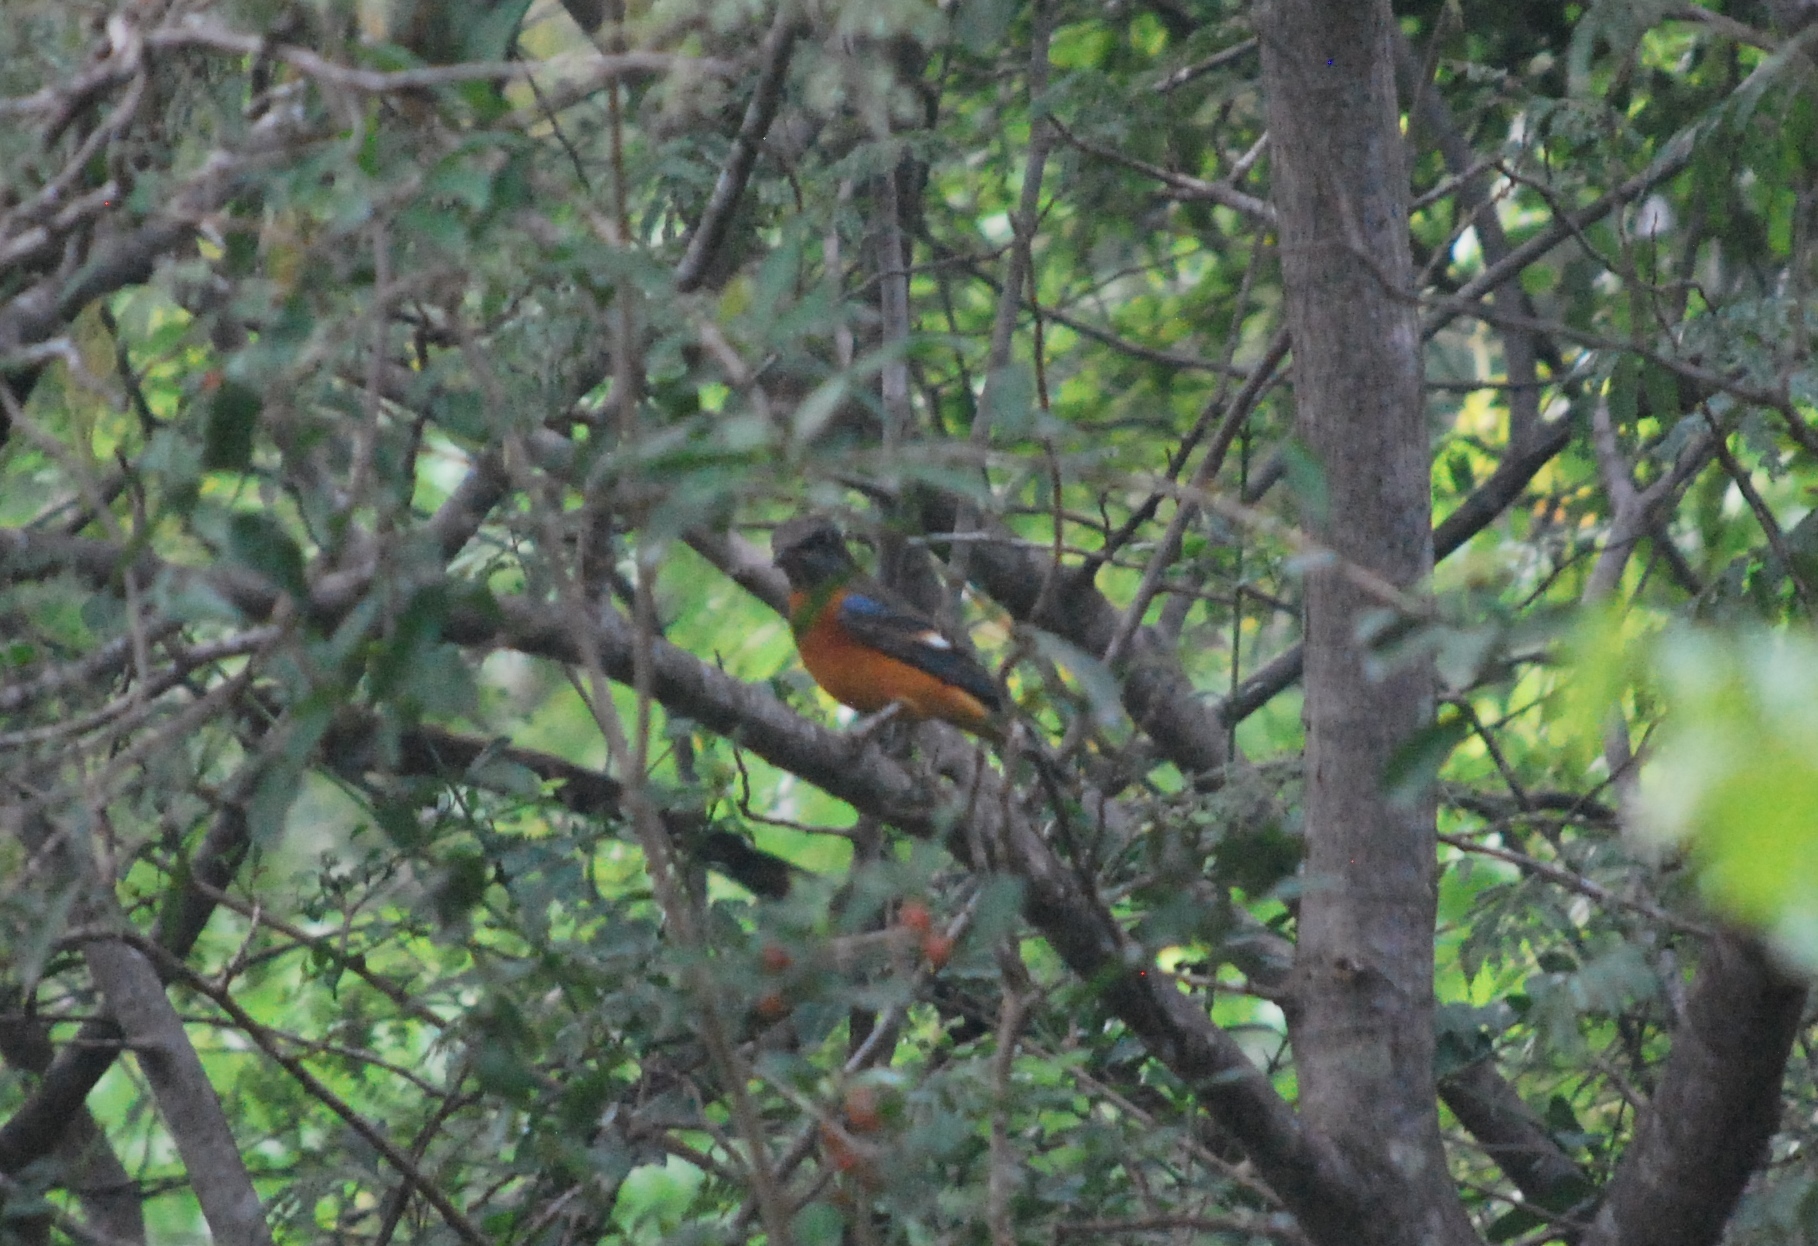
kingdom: Animalia
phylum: Chordata
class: Aves
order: Passeriformes
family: Muscicapidae
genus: Monticola
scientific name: Monticola cinclorhynchus
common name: Blue-capped rock thrush
